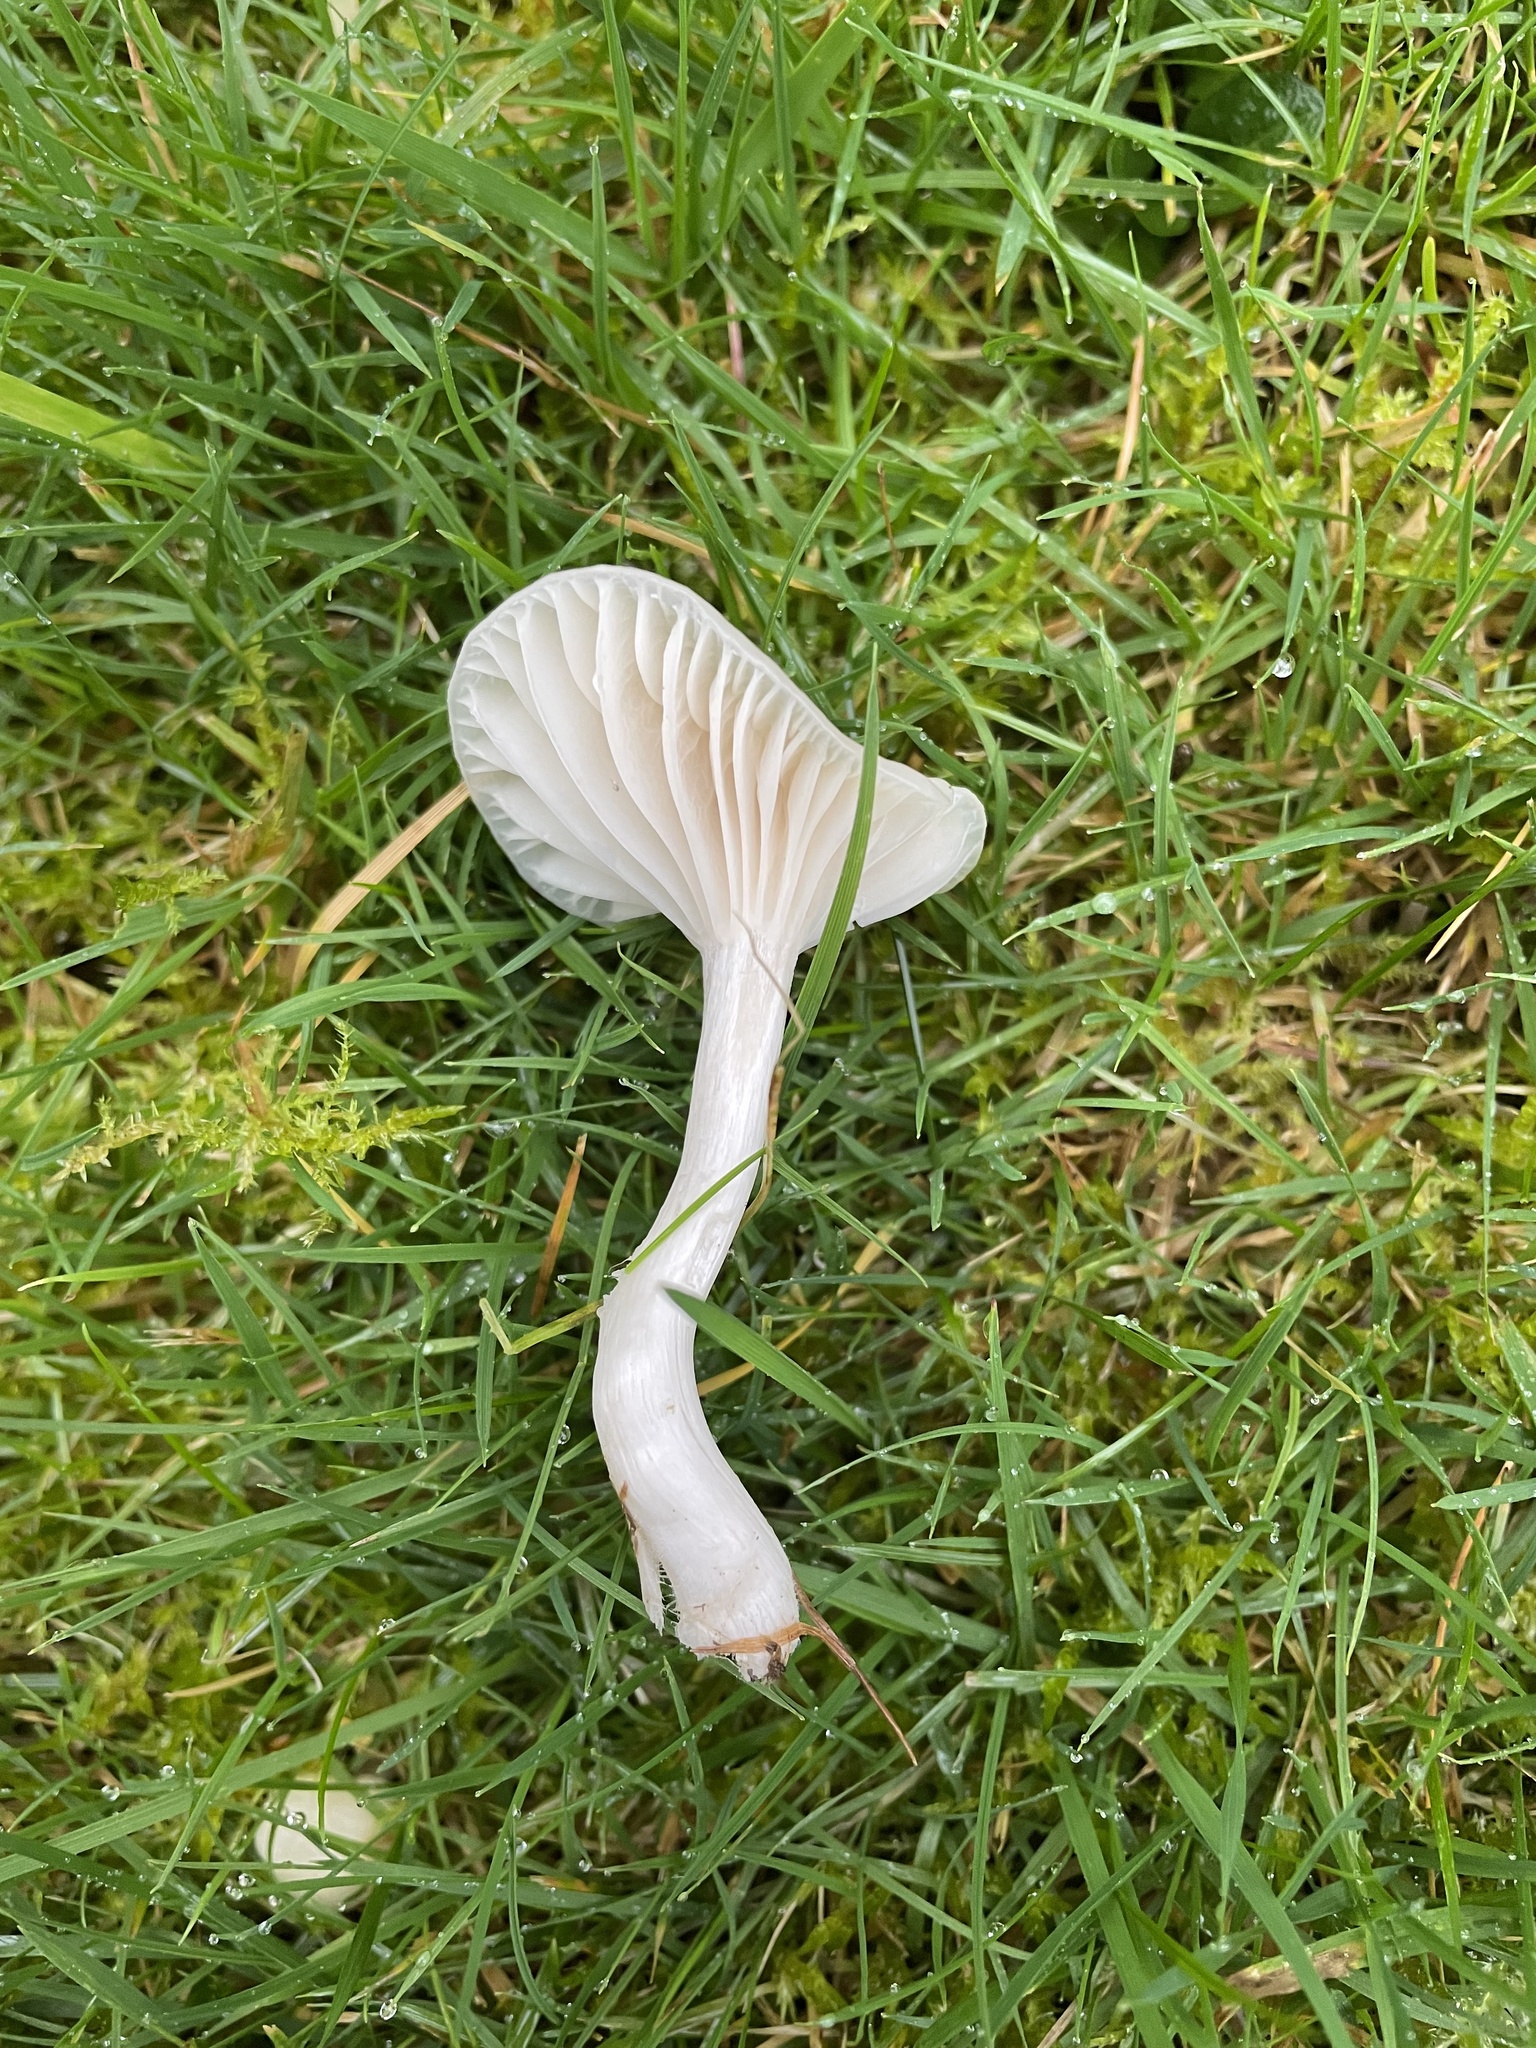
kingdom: Fungi
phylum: Basidiomycota
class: Agaricomycetes
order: Agaricales
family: Hygrophoraceae
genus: Cuphophyllus
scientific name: Cuphophyllus virgineus
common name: Snowy waxcap
